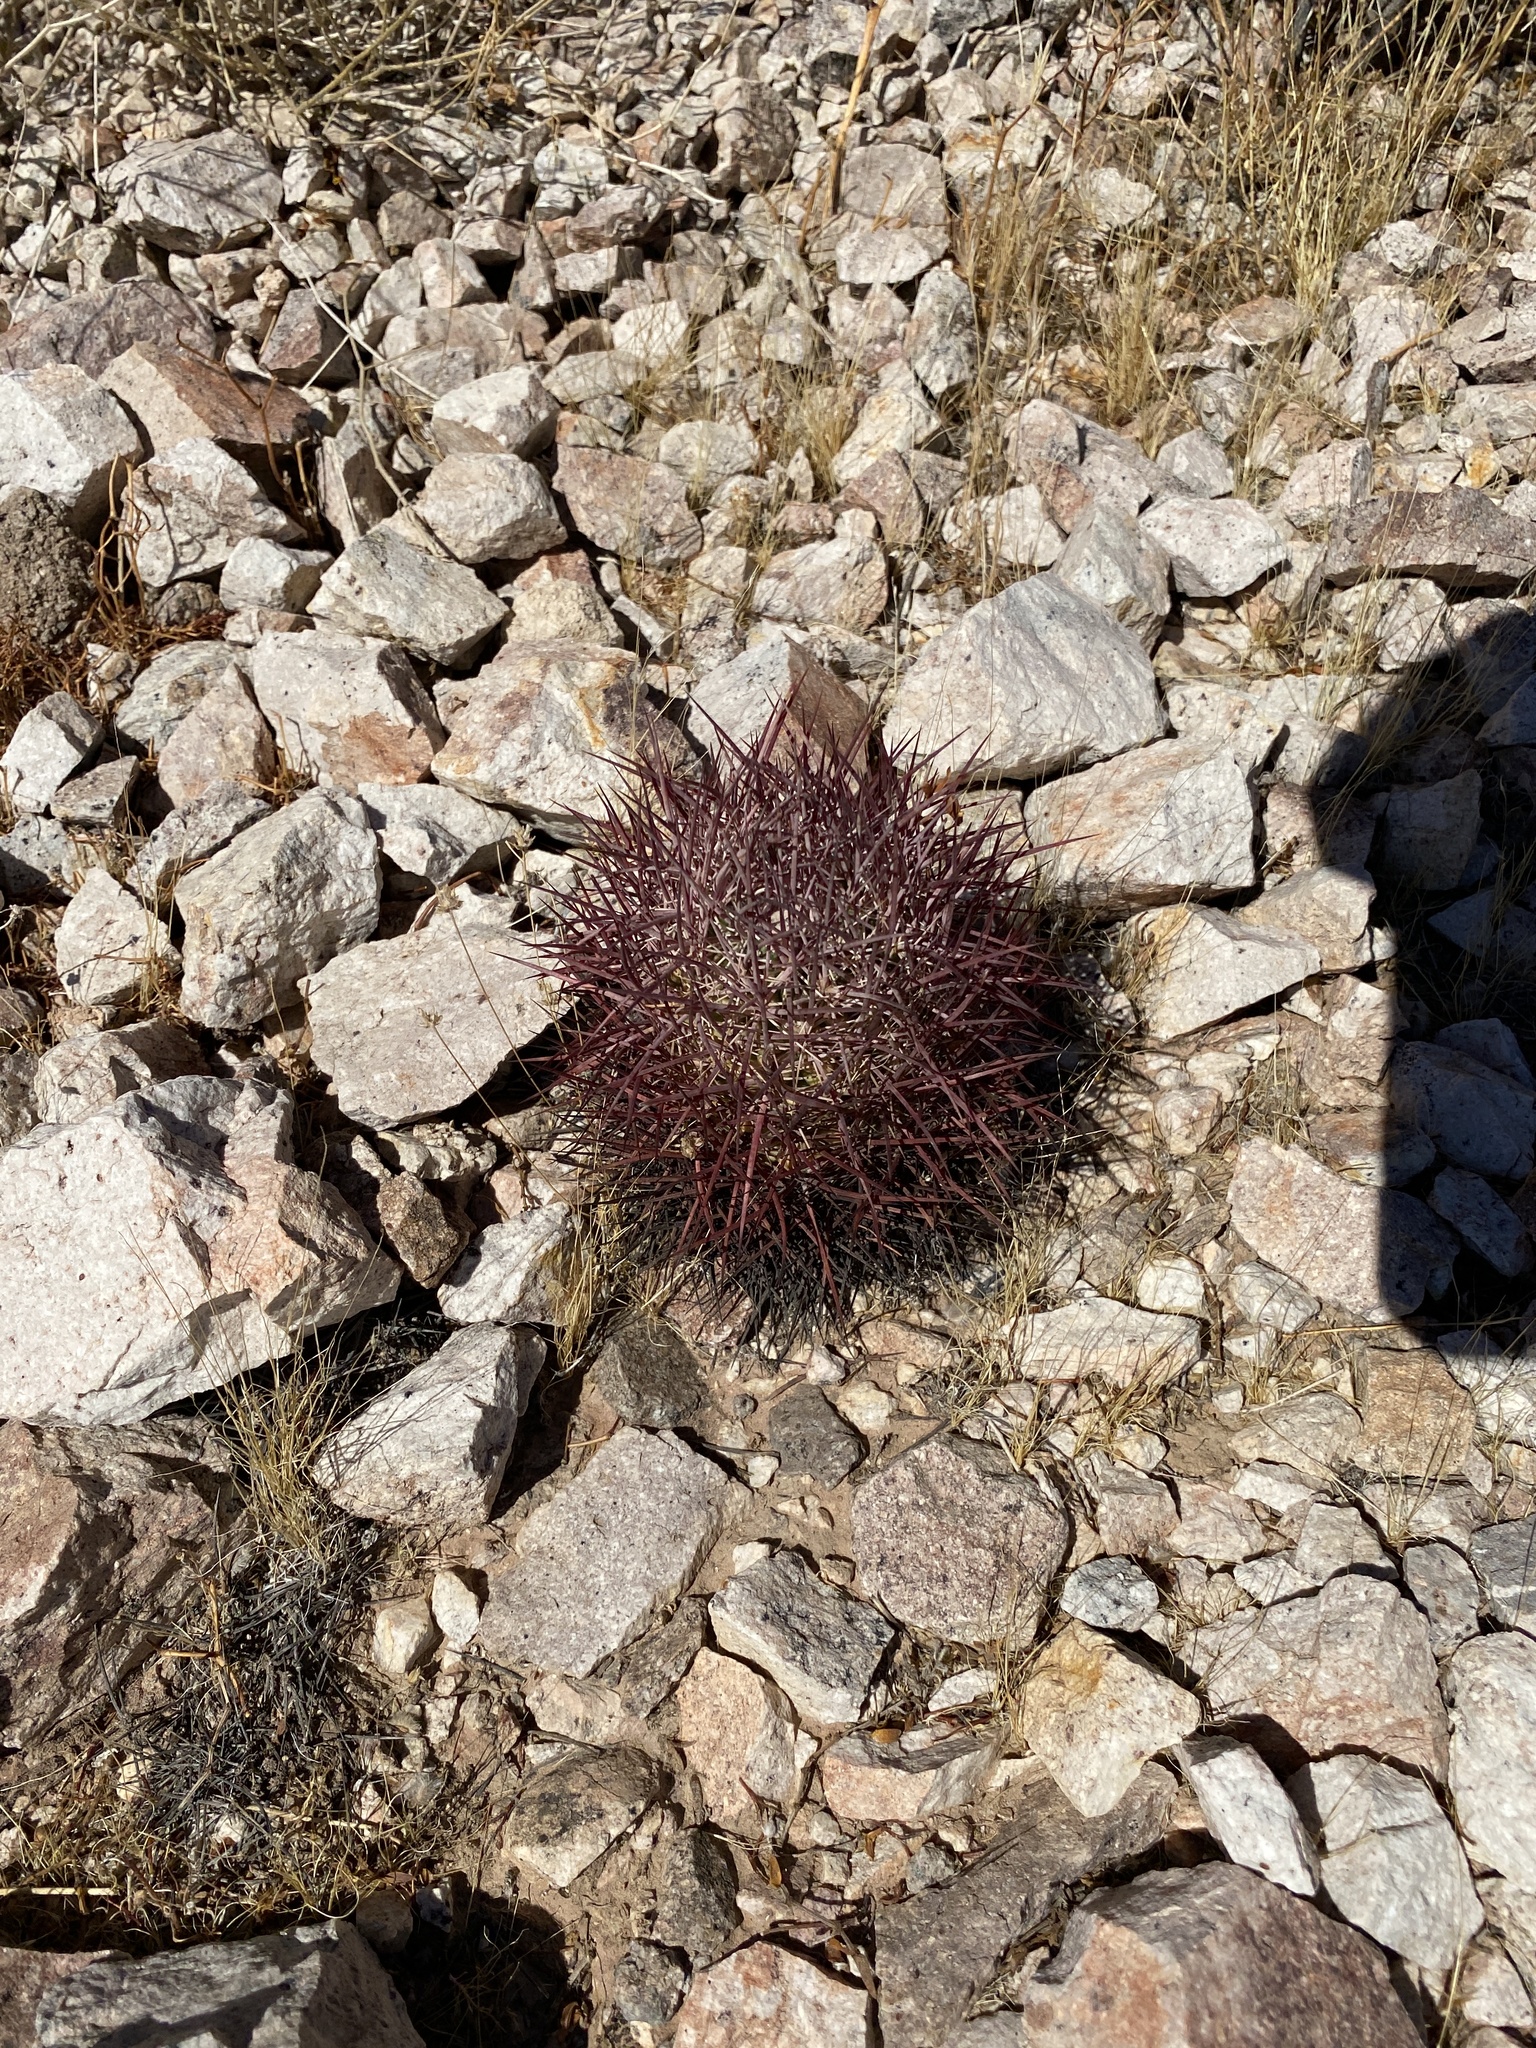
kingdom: Plantae
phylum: Tracheophyta
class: Magnoliopsida
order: Caryophyllales
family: Cactaceae
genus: Sclerocactus
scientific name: Sclerocactus johnsonii
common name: Eight-spine fishhook cactus
